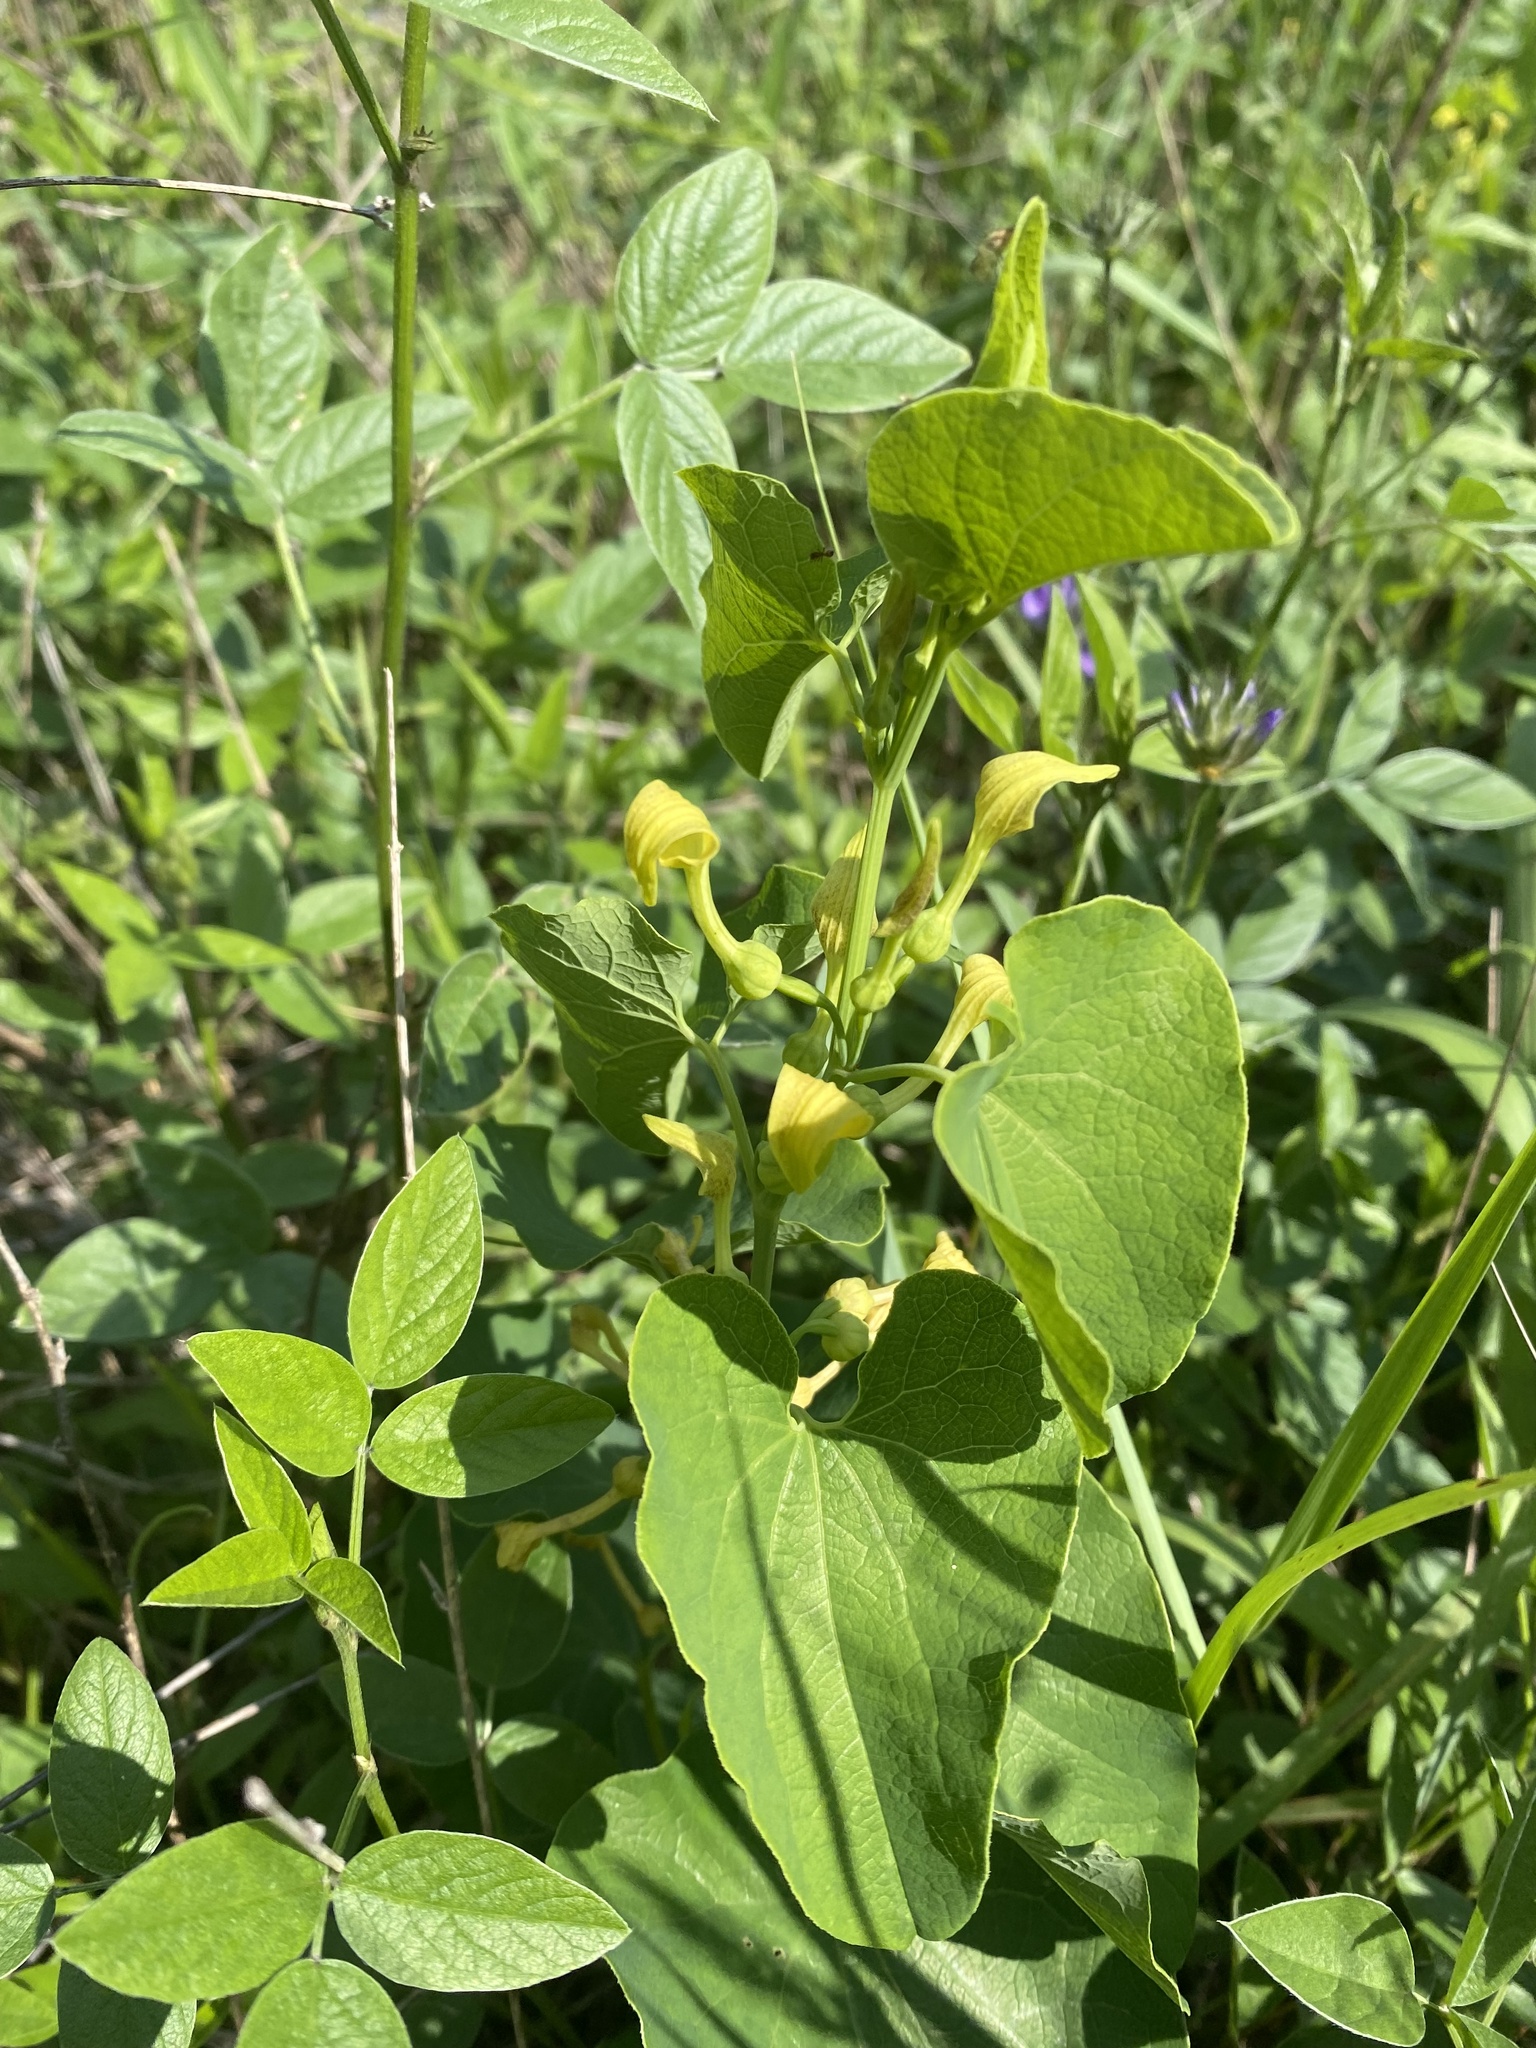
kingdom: Plantae
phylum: Tracheophyta
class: Magnoliopsida
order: Piperales
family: Aristolochiaceae
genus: Aristolochia
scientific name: Aristolochia clematitis
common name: Birthwort
